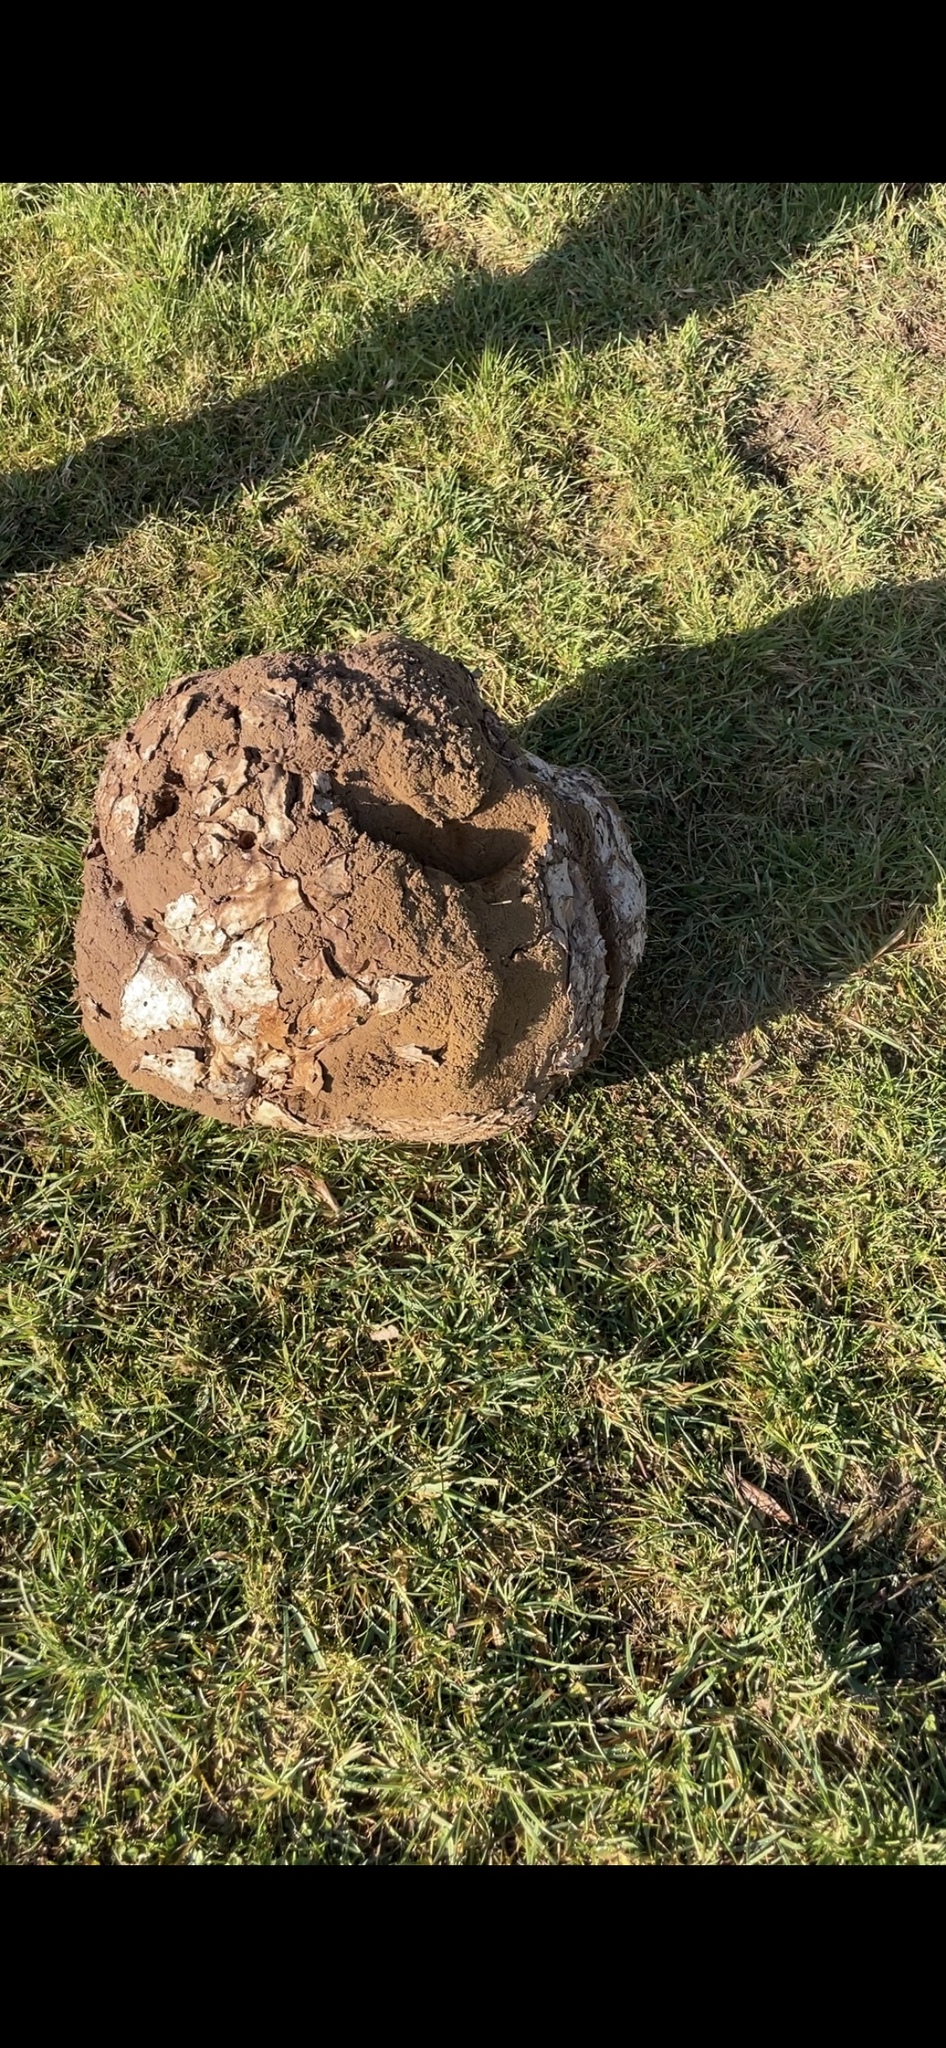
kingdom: Fungi
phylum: Basidiomycota
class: Agaricomycetes
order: Agaricales
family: Lycoperdaceae
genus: Calvatia
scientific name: Calvatia gigantea
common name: Giant puffball
